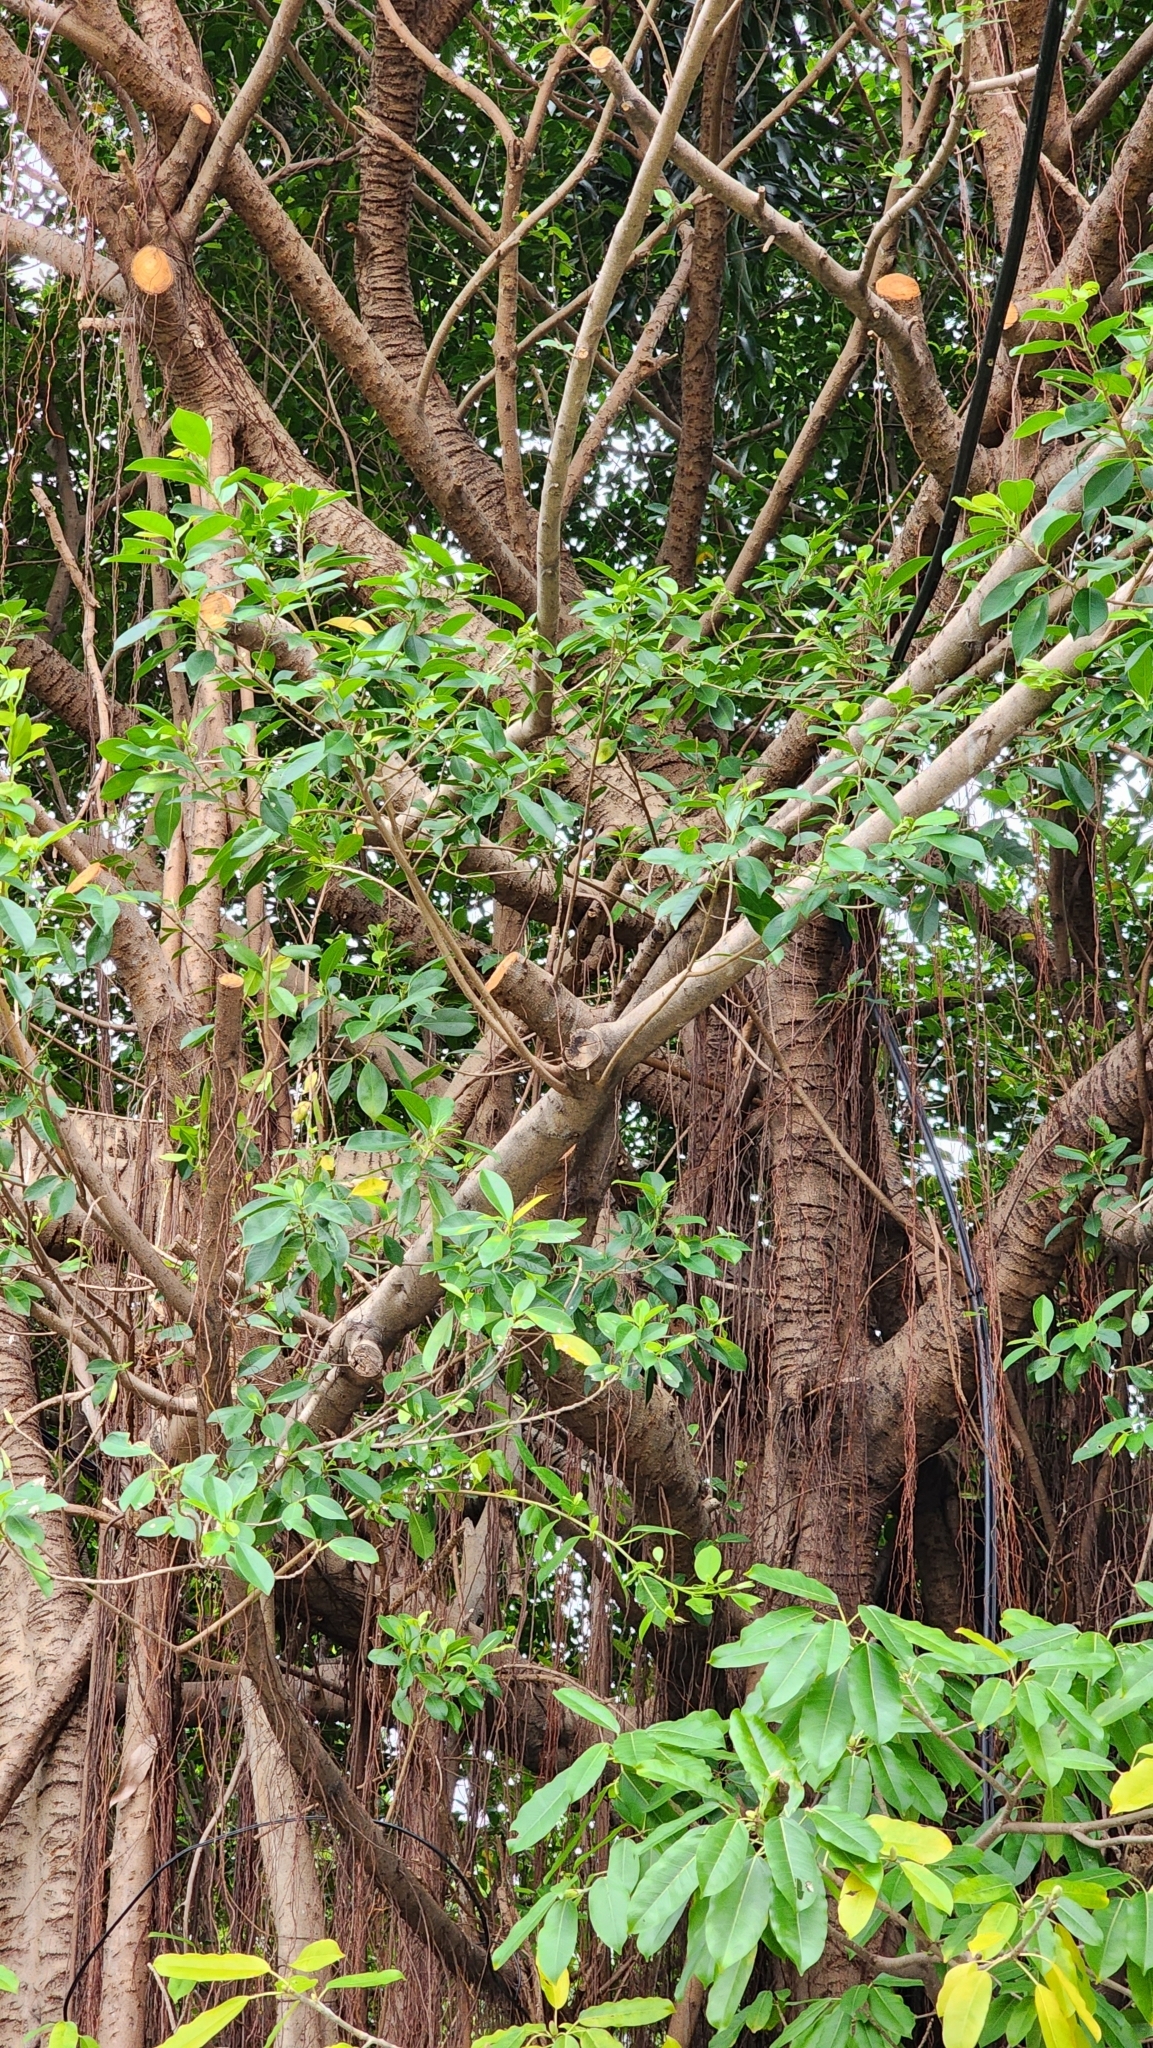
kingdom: Plantae
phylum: Tracheophyta
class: Magnoliopsida
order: Rosales
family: Moraceae
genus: Ficus
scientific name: Ficus microcarpa
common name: Chinese banyan
